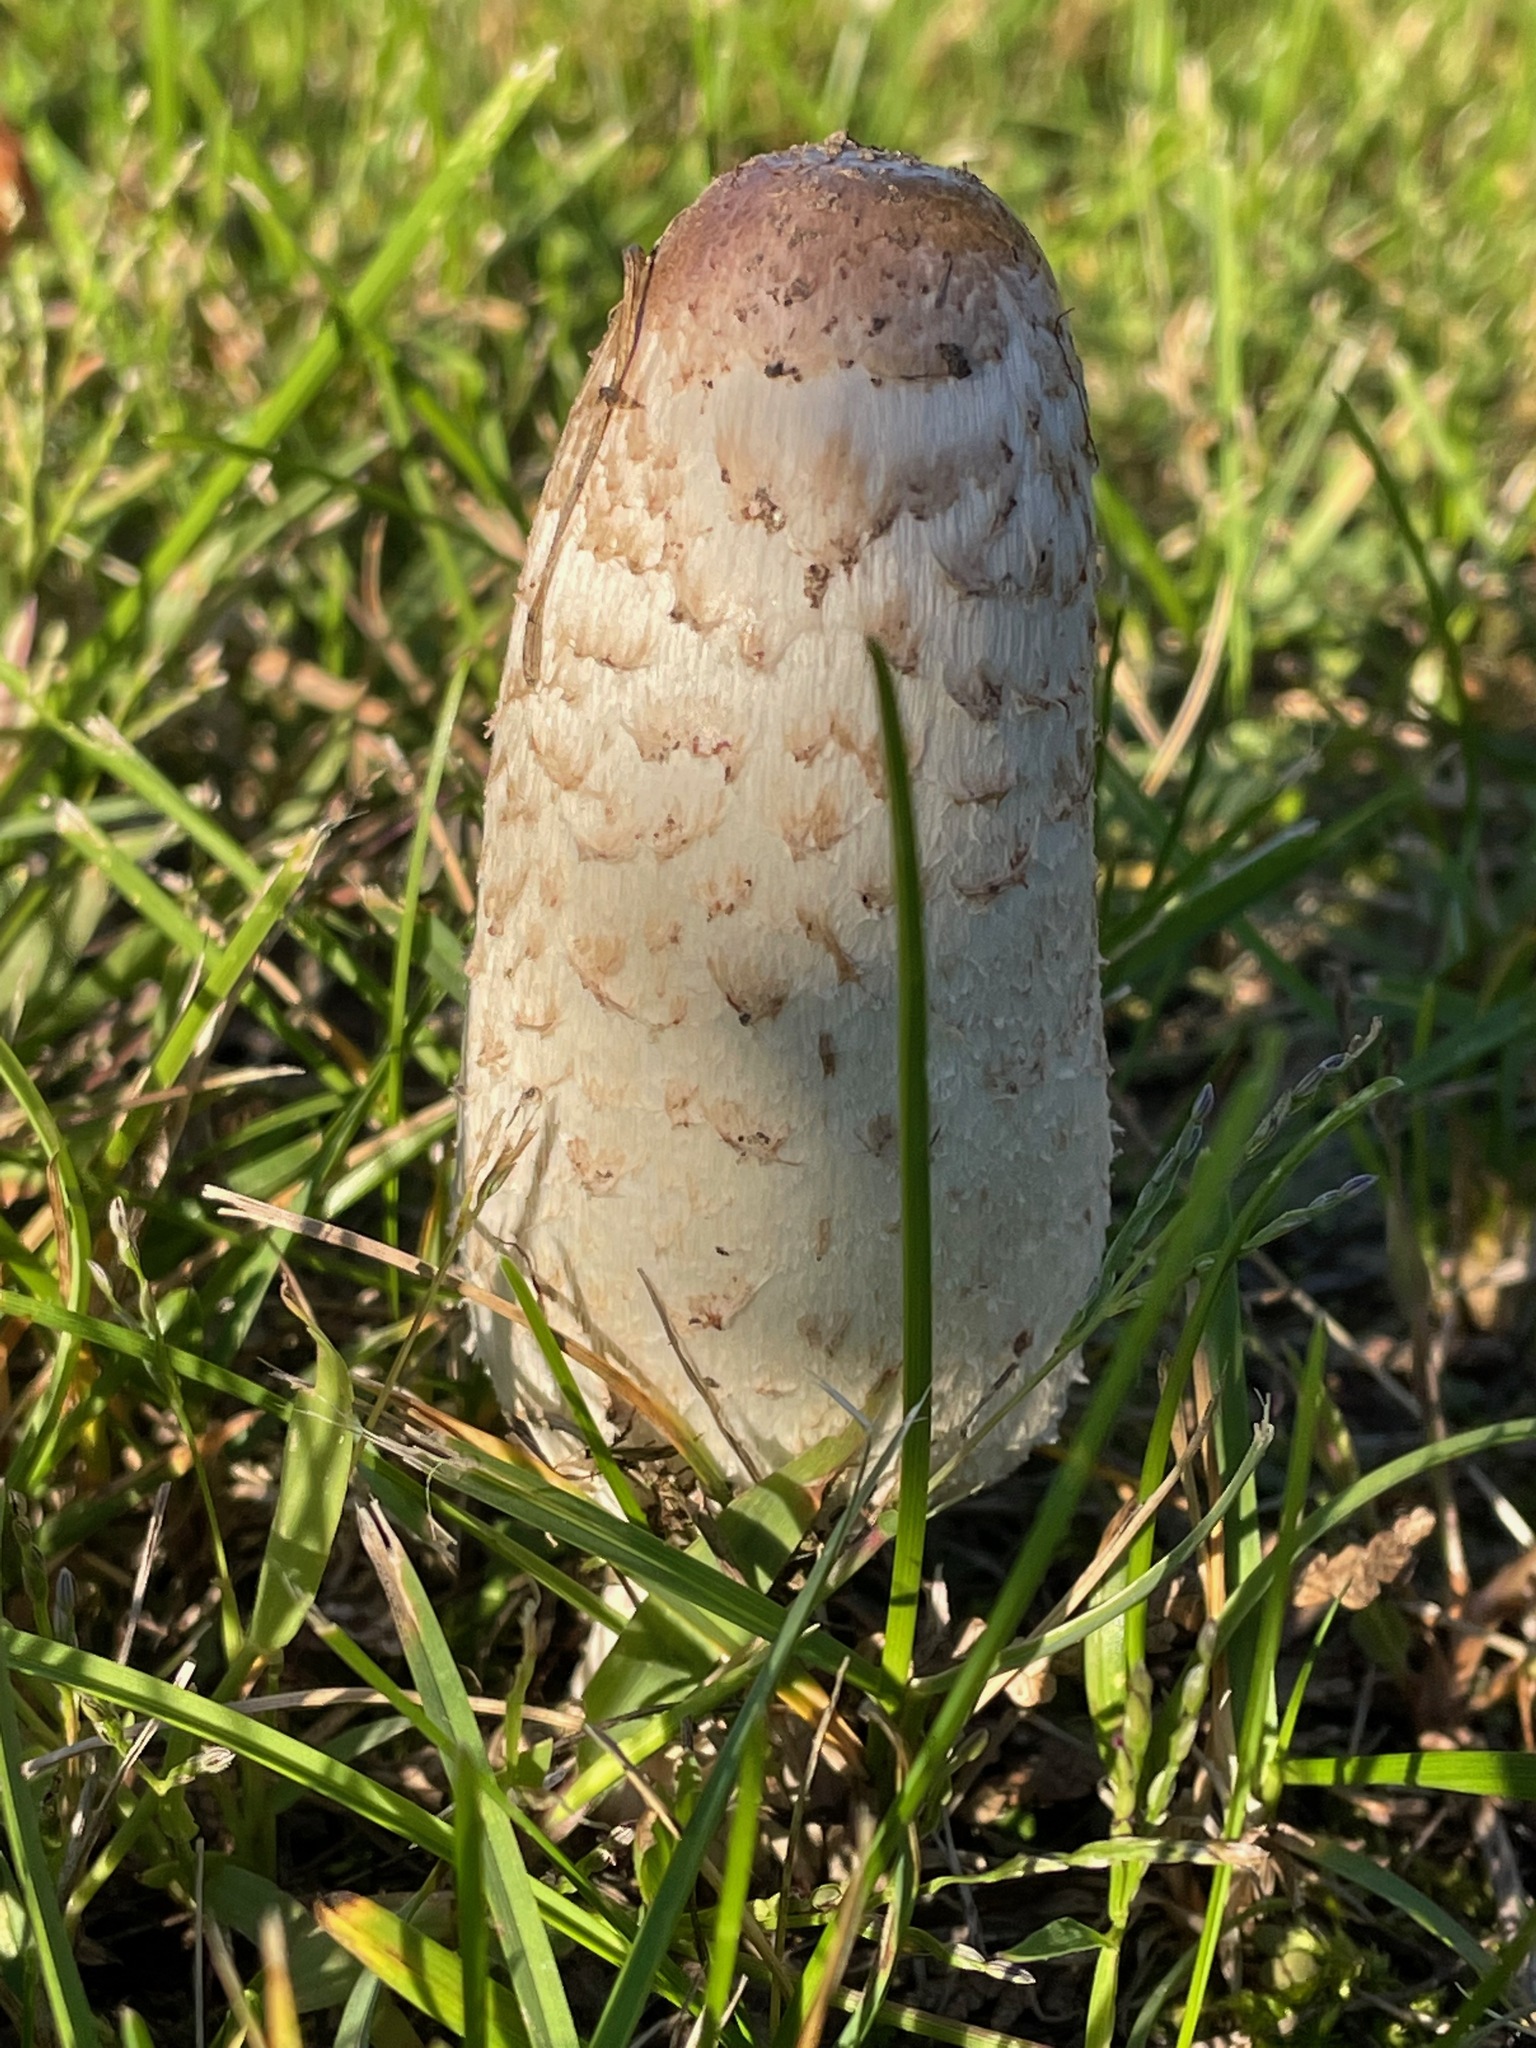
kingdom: Fungi
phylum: Basidiomycota
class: Agaricomycetes
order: Agaricales
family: Agaricaceae
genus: Coprinus
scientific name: Coprinus comatus
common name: Lawyer's wig
